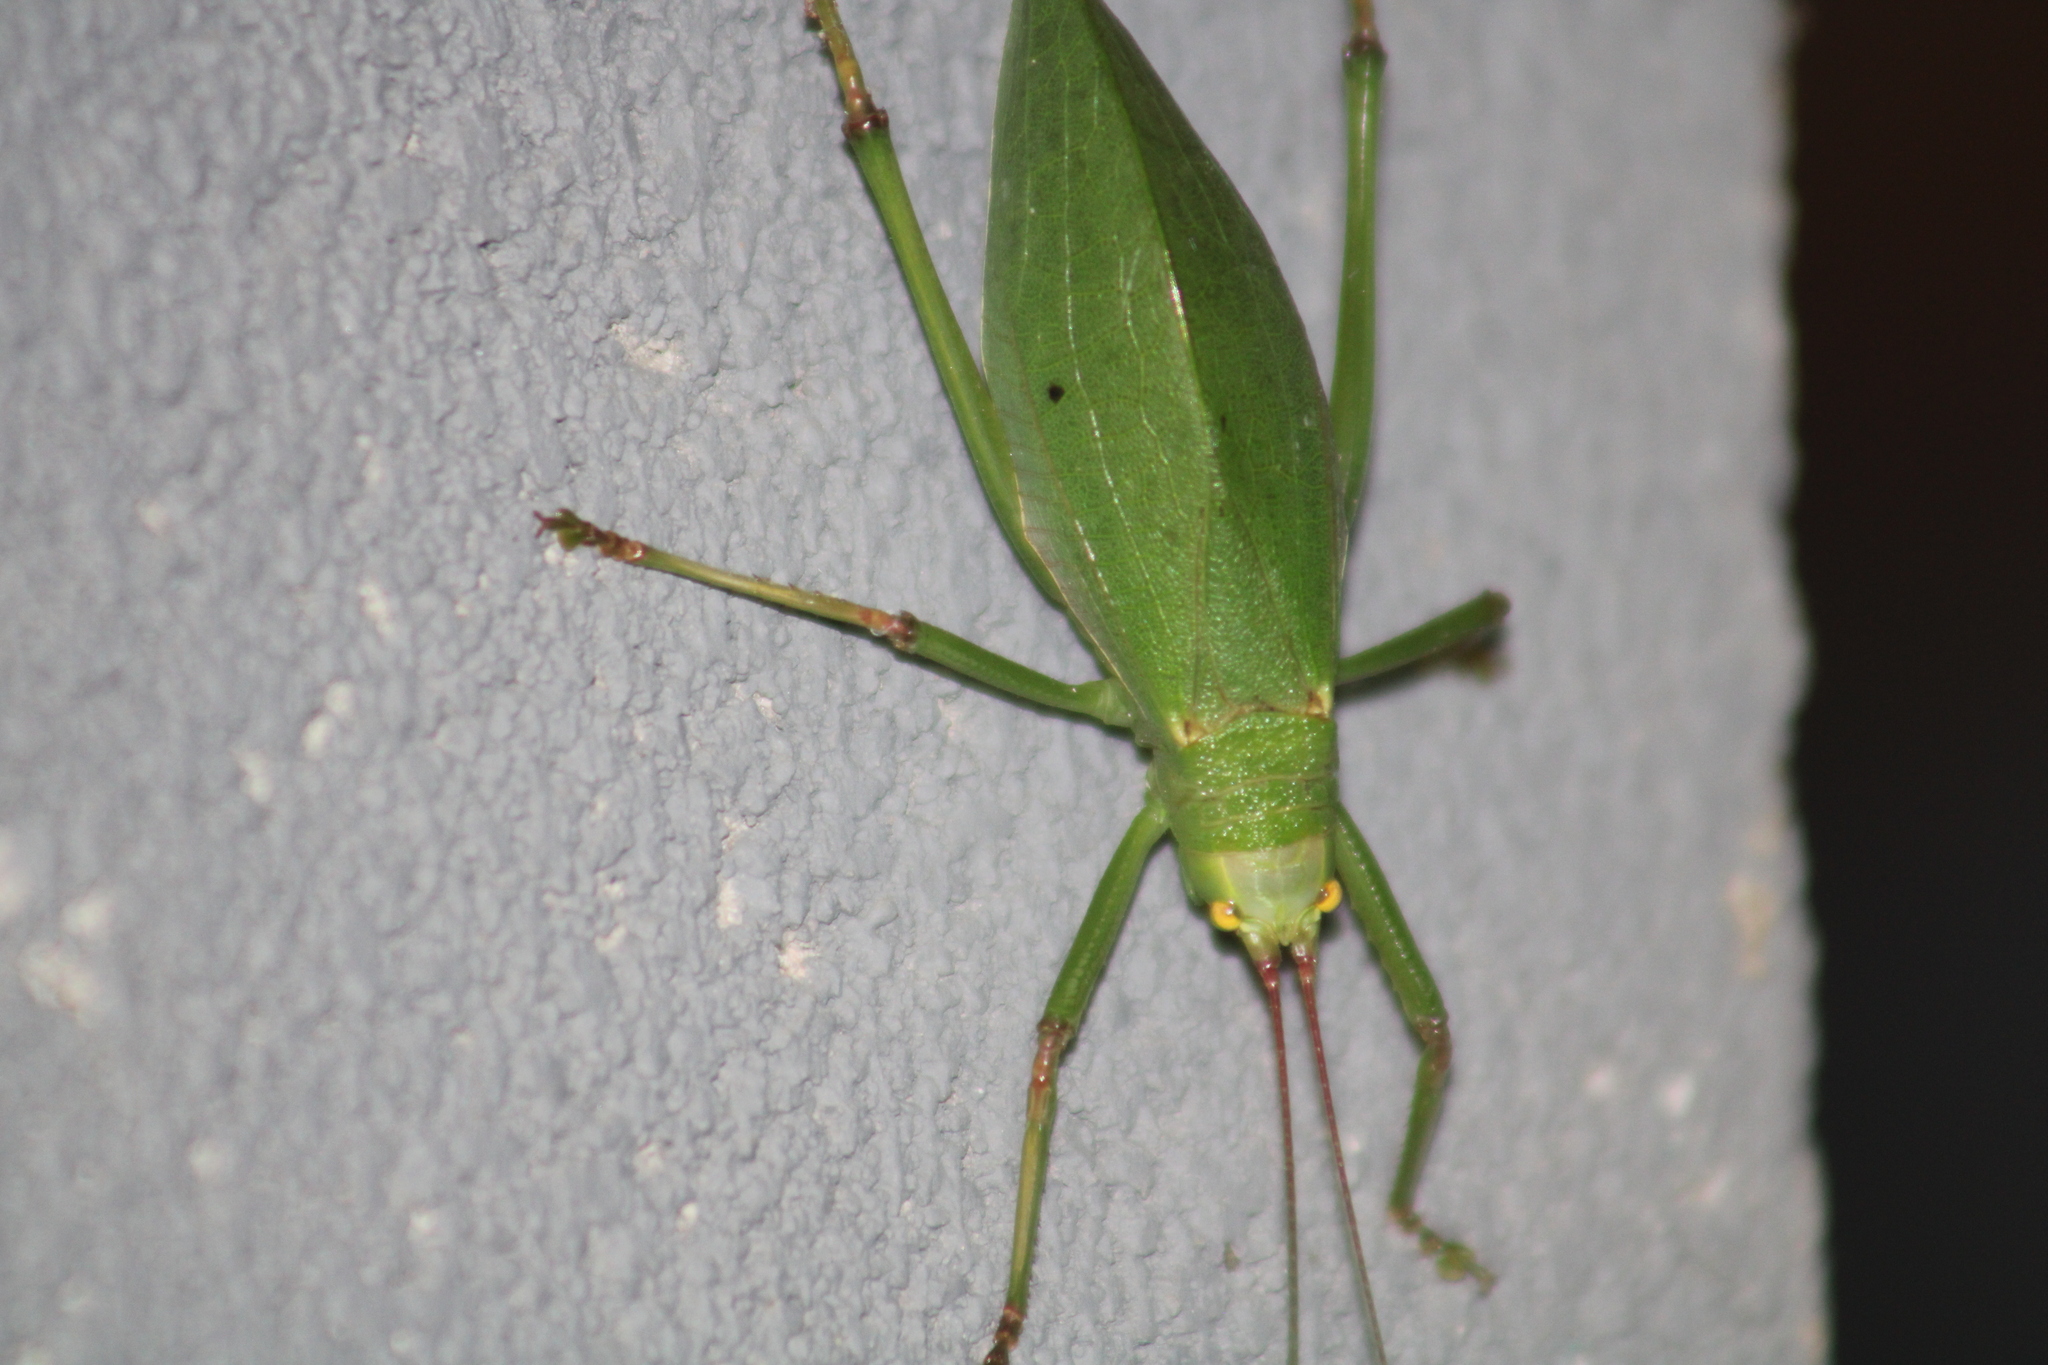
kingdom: Animalia
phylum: Arthropoda
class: Insecta
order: Orthoptera
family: Tettigoniidae
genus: Pterophylla
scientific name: Pterophylla camellifolia
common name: Common true katydid
